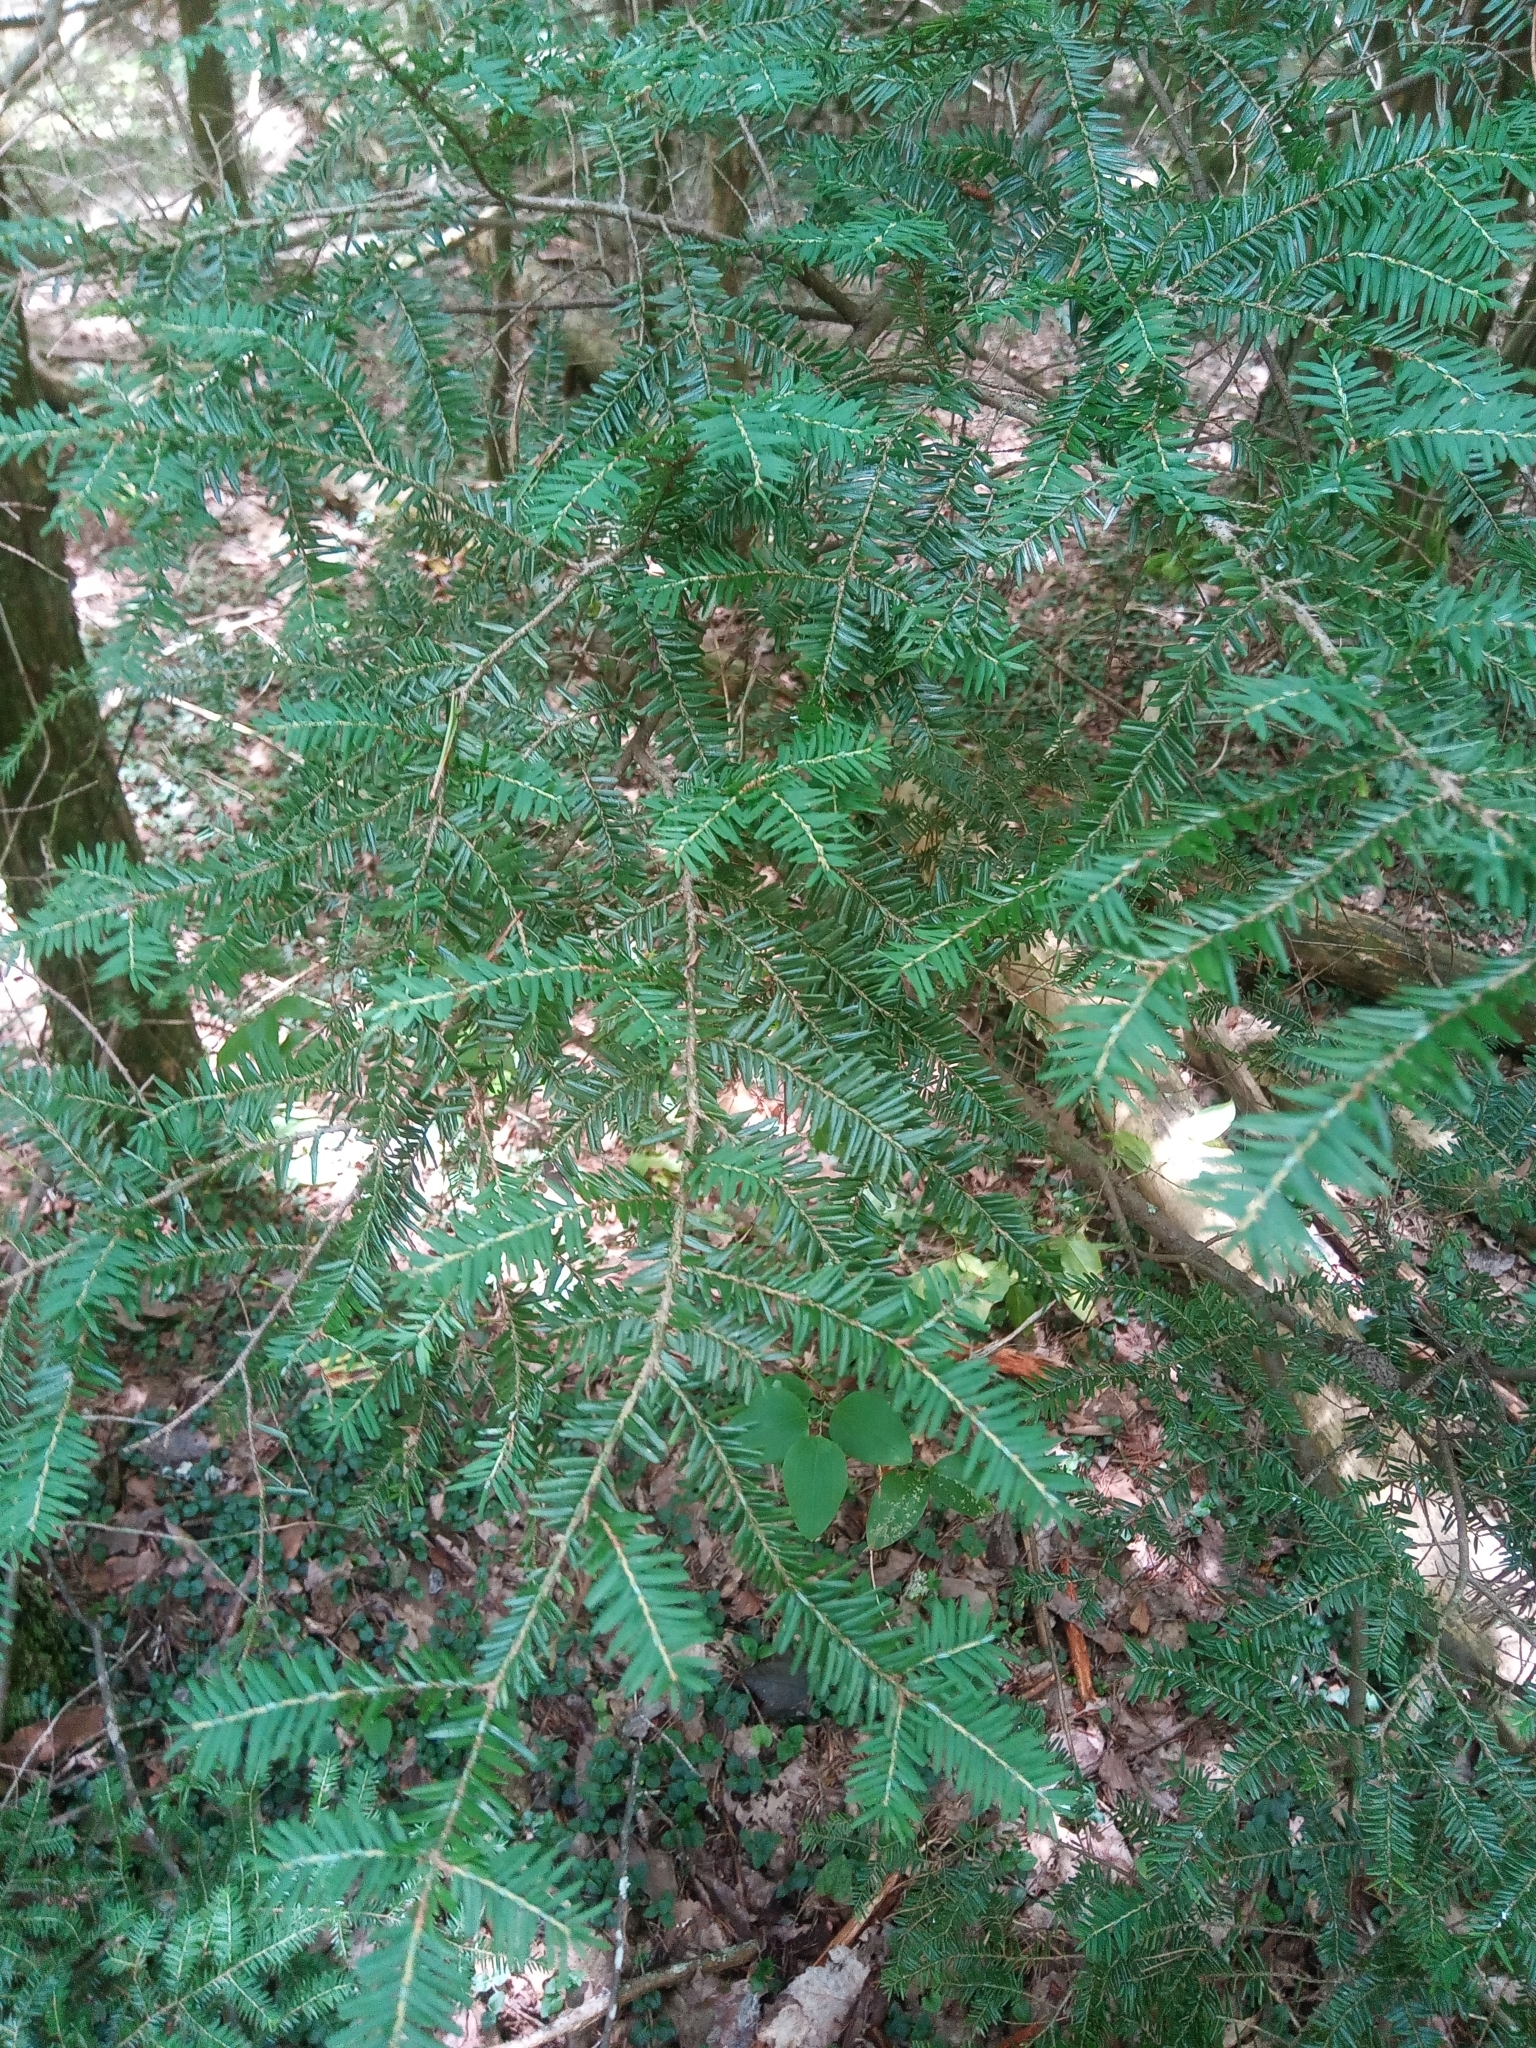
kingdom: Plantae
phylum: Tracheophyta
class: Pinopsida
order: Pinales
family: Pinaceae
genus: Tsuga
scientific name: Tsuga canadensis
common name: Eastern hemlock
